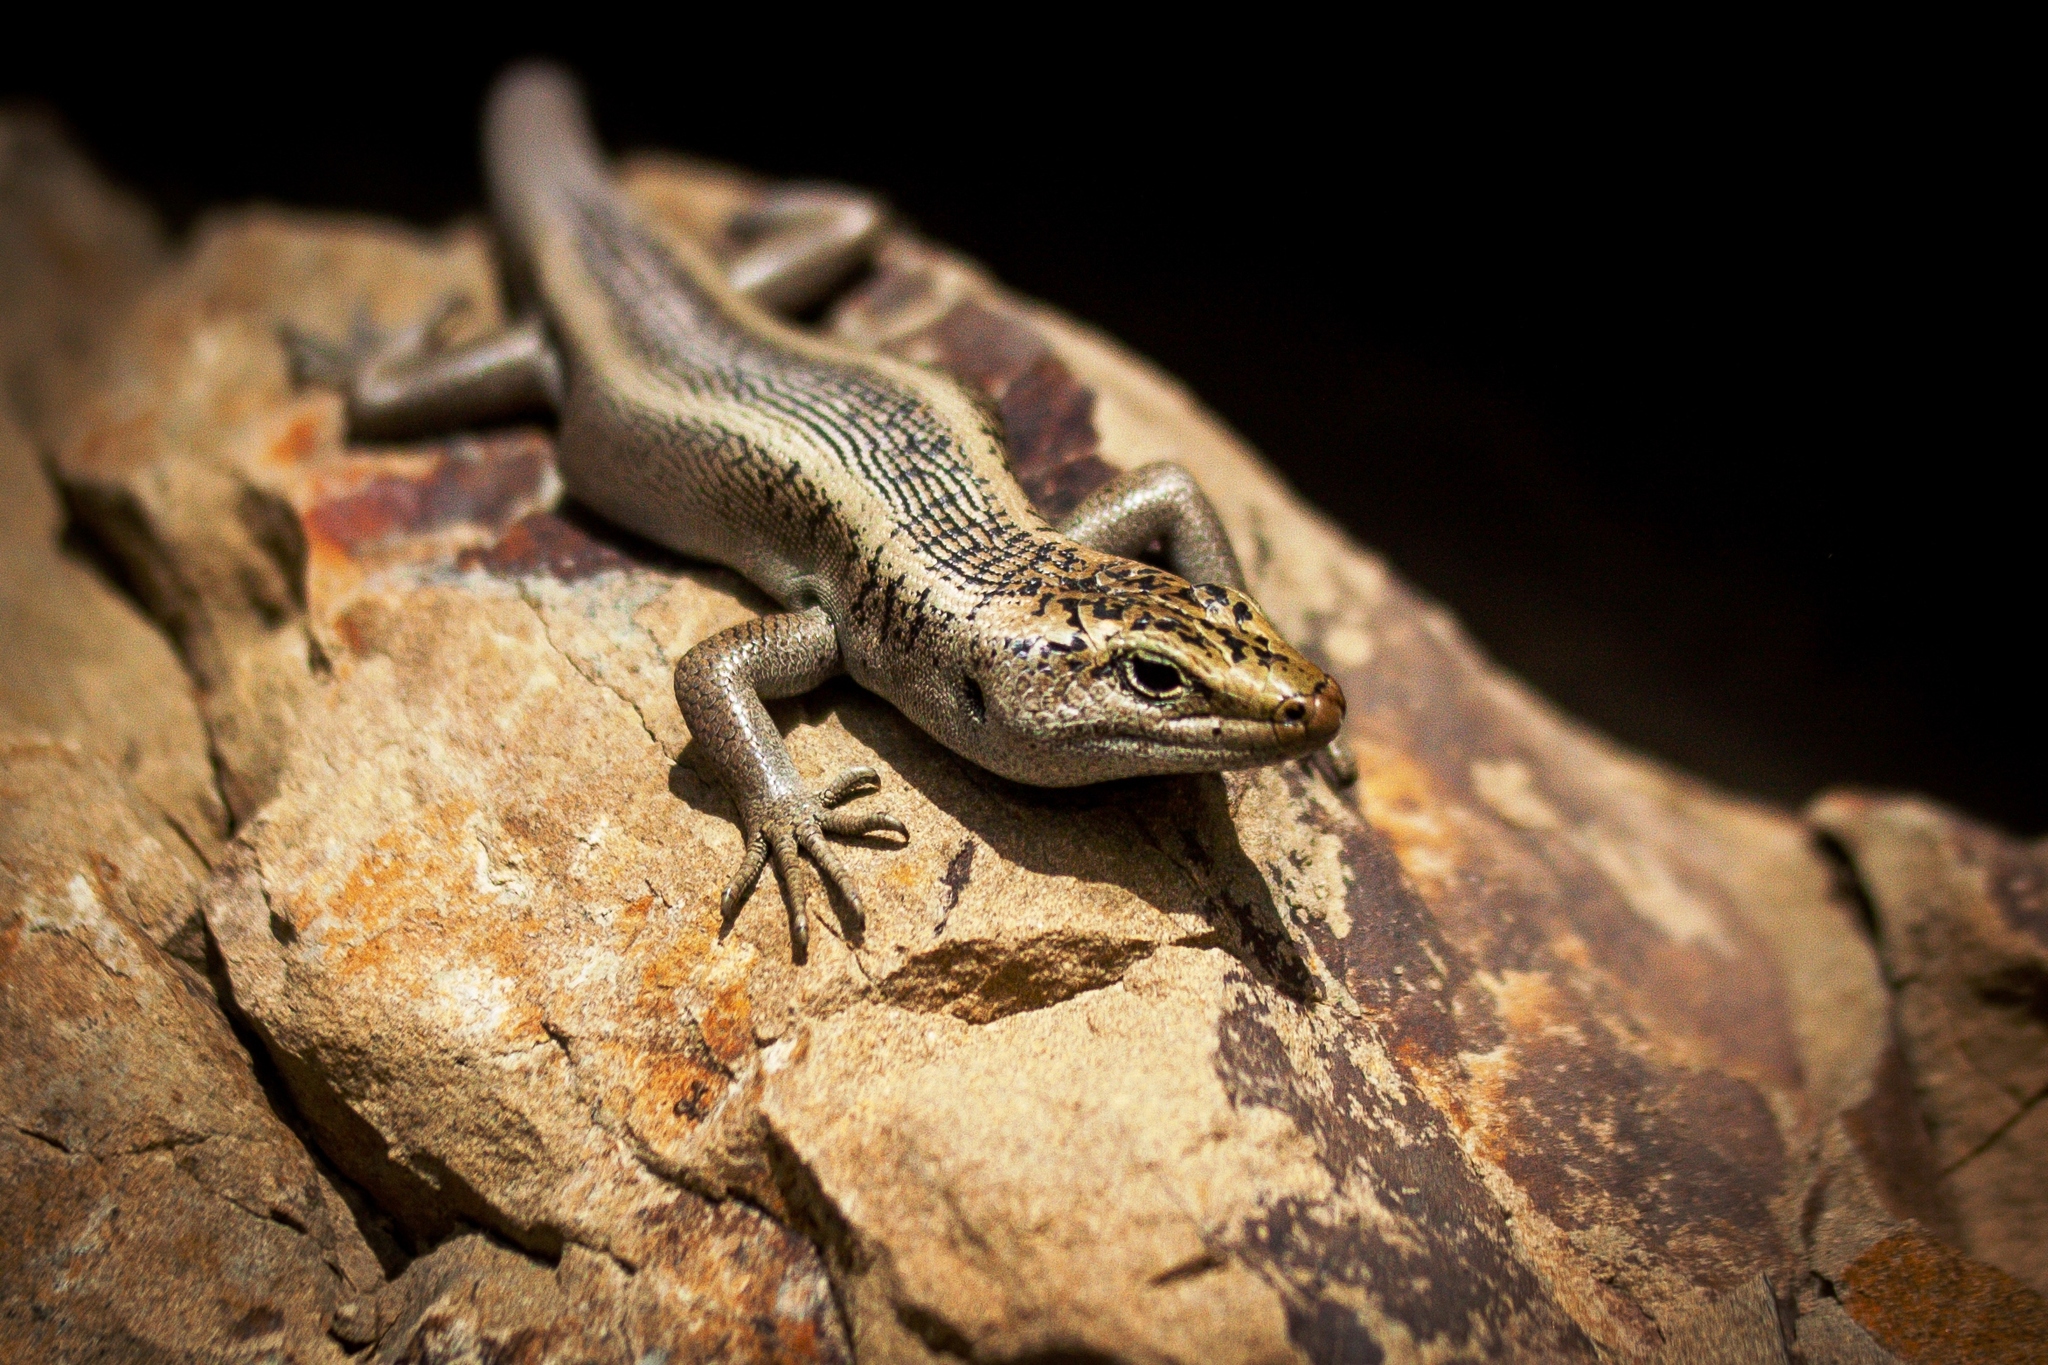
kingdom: Animalia
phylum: Chordata
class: Squamata
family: Scincidae
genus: Oligosoma
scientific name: Oligosoma waimatense
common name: Scree skink
